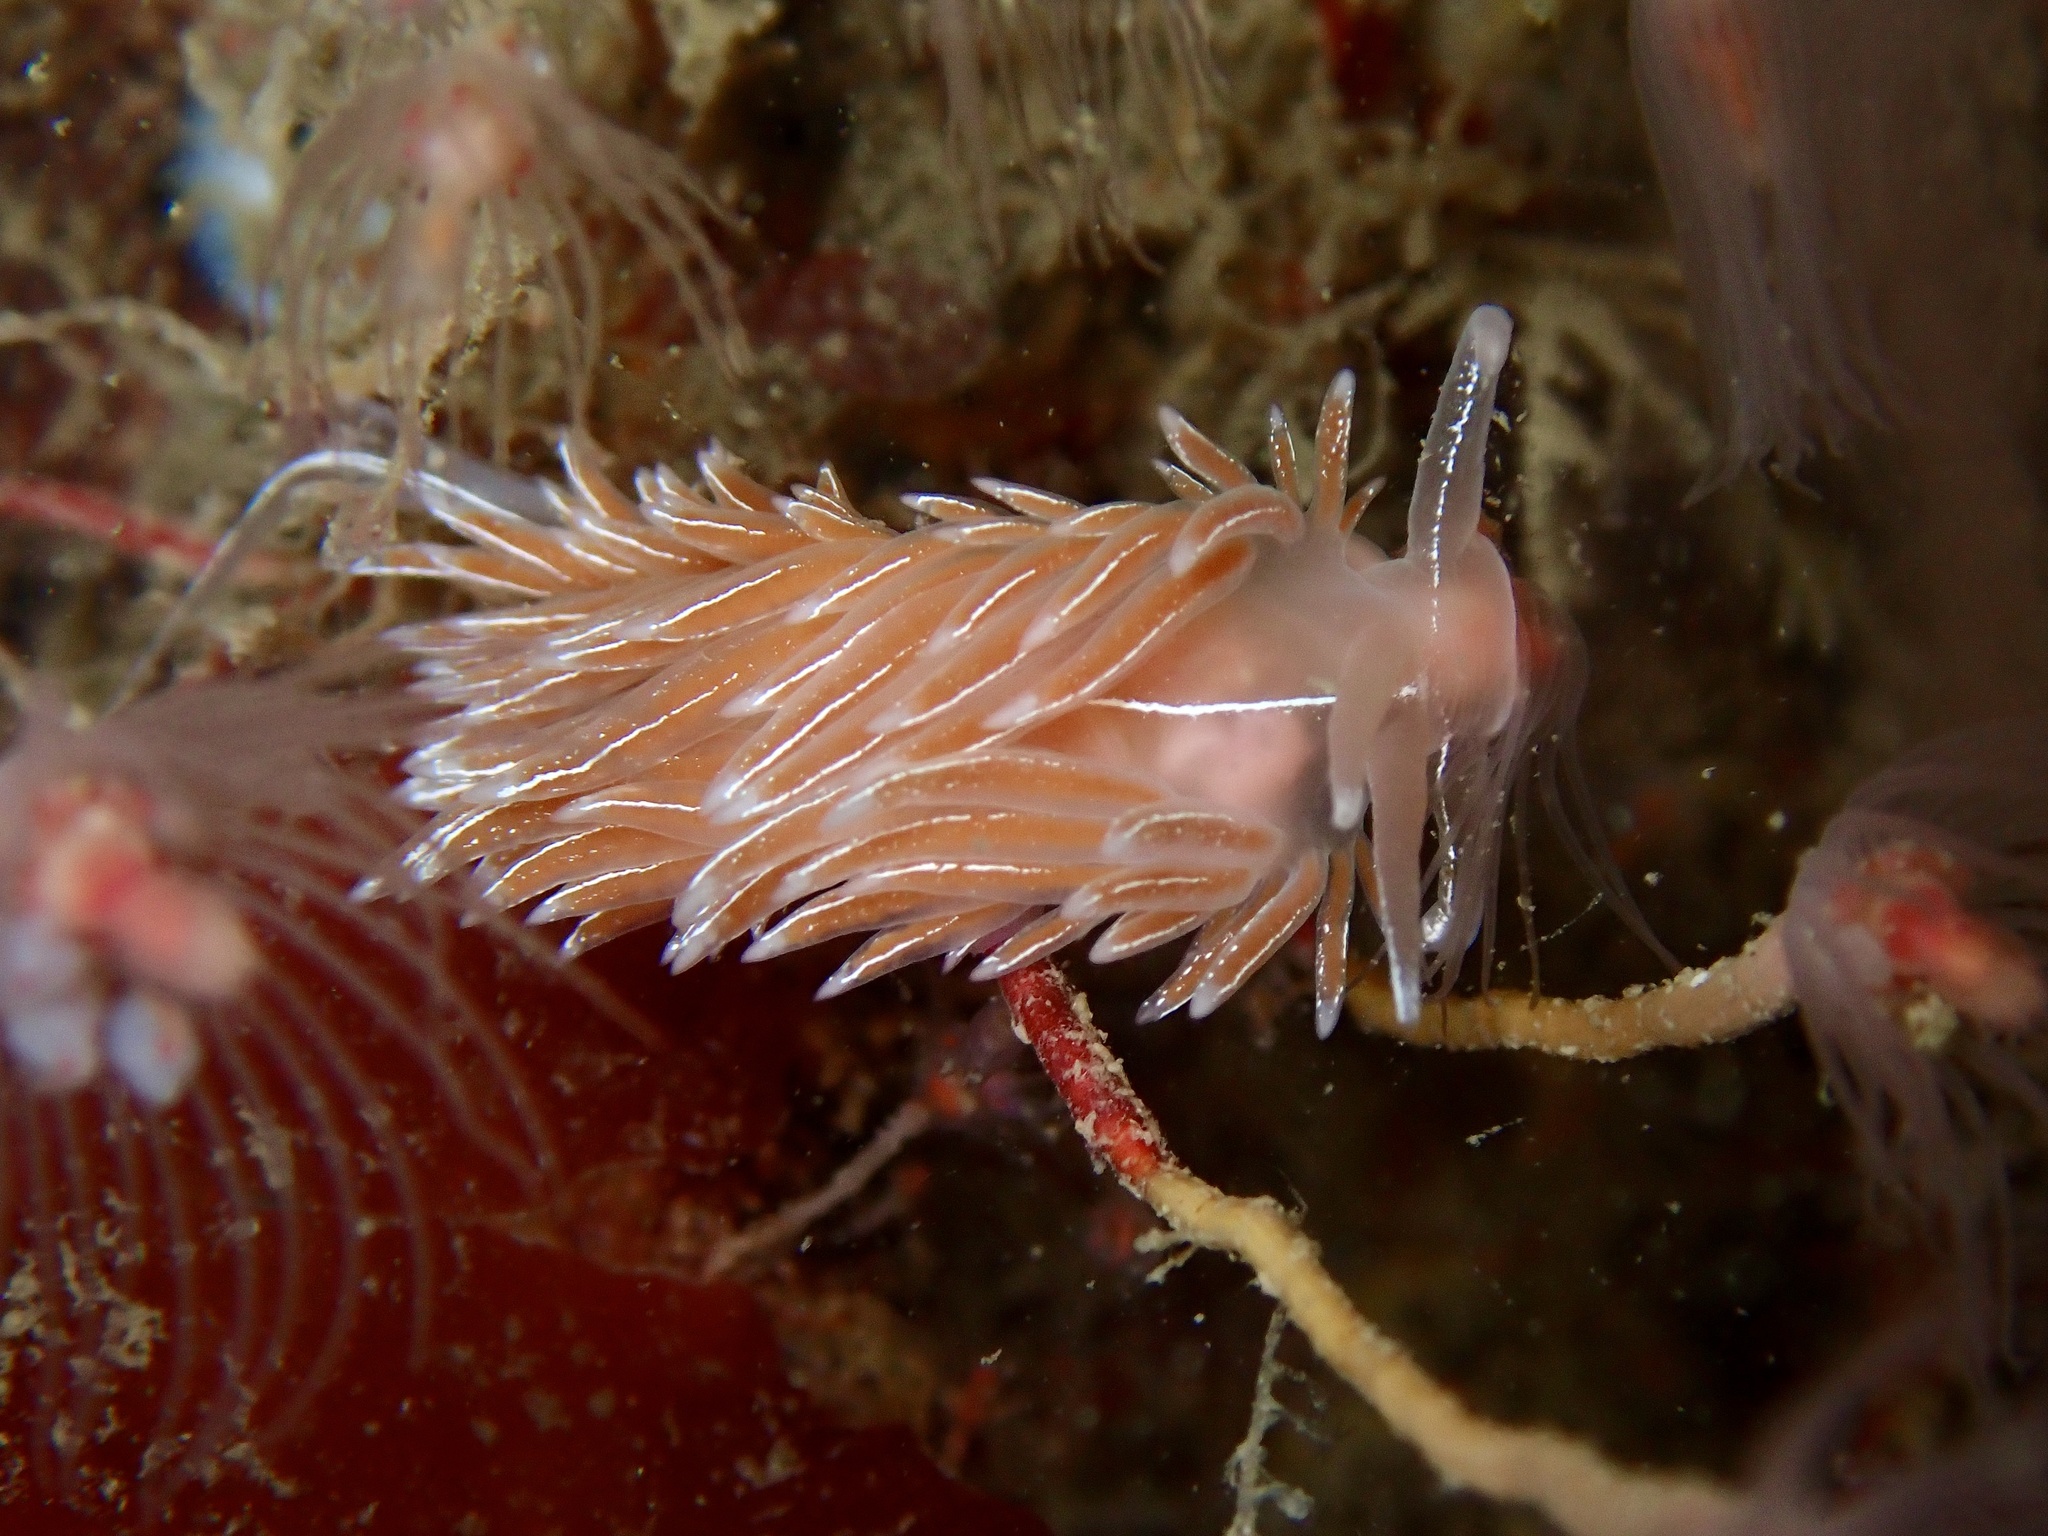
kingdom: Animalia
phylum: Mollusca
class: Gastropoda
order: Nudibranchia
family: Coryphellidae
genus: Coryphella
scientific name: Coryphella chriskaugei
